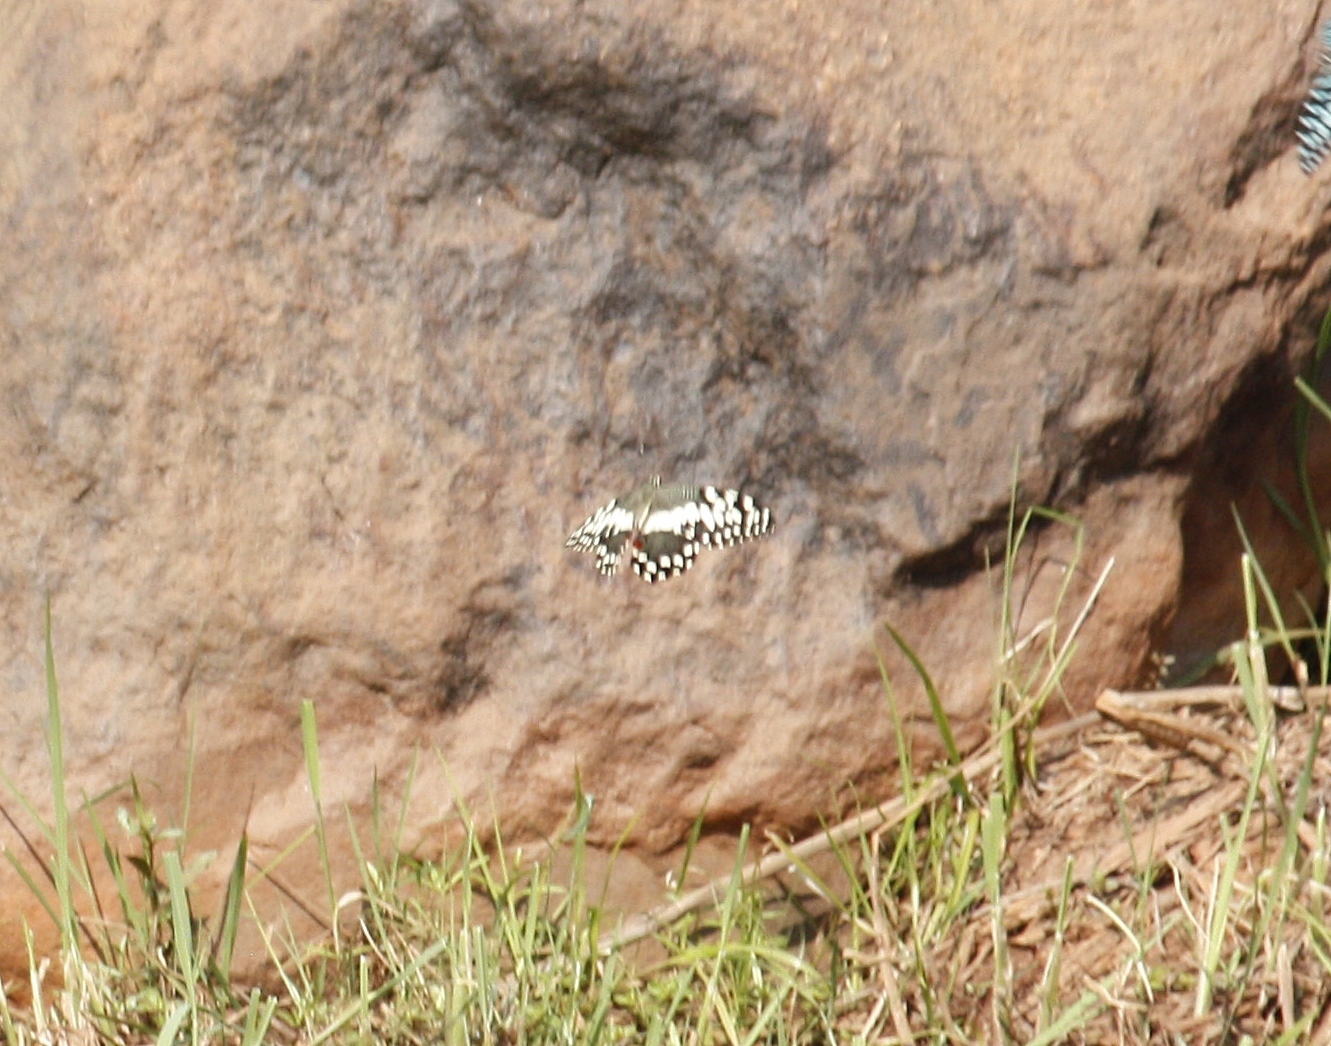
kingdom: Animalia
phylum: Arthropoda
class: Insecta
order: Lepidoptera
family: Papilionidae
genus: Papilio
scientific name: Papilio demodocus
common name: Christmas butterfly
